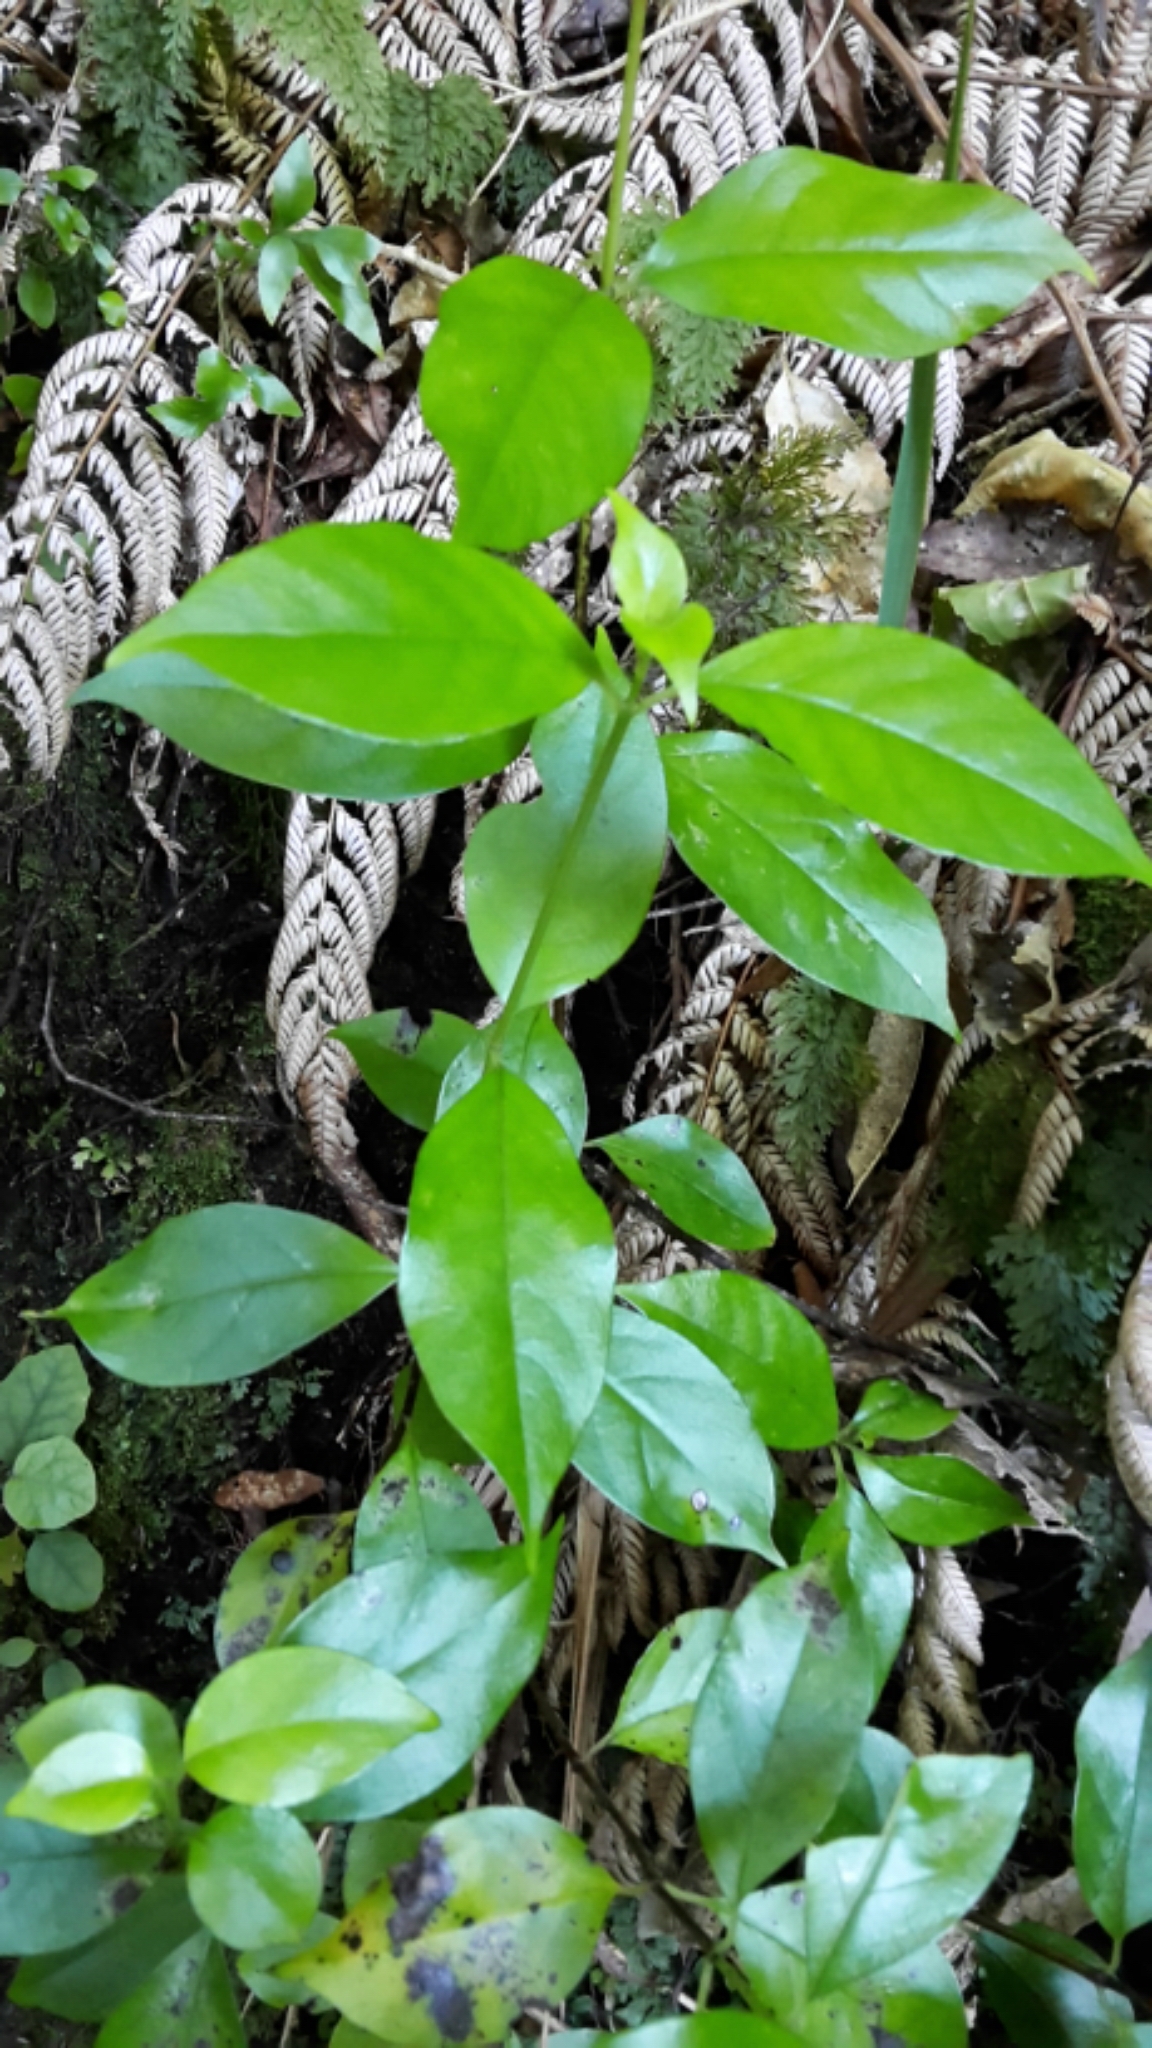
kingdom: Plantae
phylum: Tracheophyta
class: Magnoliopsida
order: Gentianales
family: Loganiaceae
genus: Geniostoma
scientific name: Geniostoma ligustrifolium
